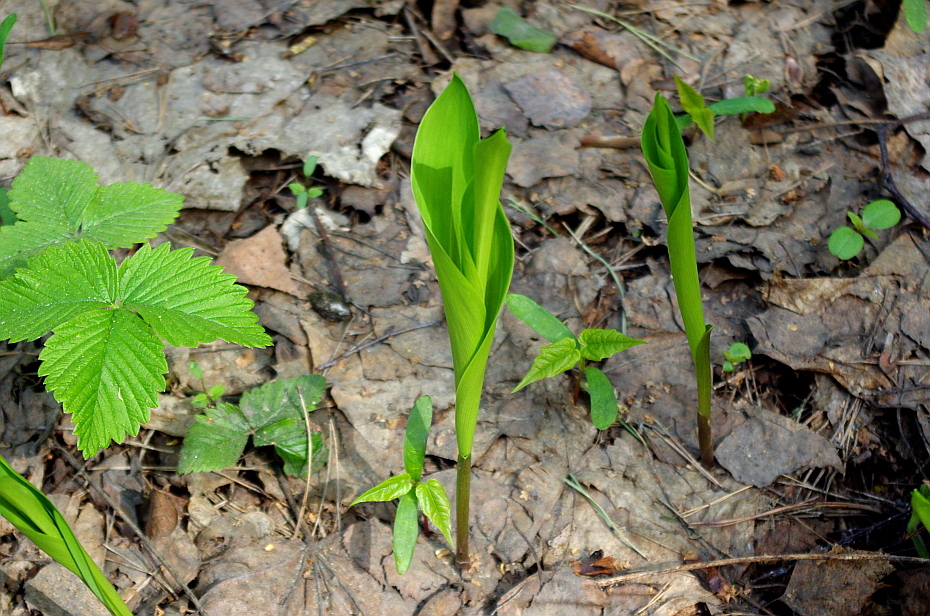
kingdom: Plantae
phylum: Tracheophyta
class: Liliopsida
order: Asparagales
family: Asparagaceae
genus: Convallaria
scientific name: Convallaria majalis
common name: Lily-of-the-valley
